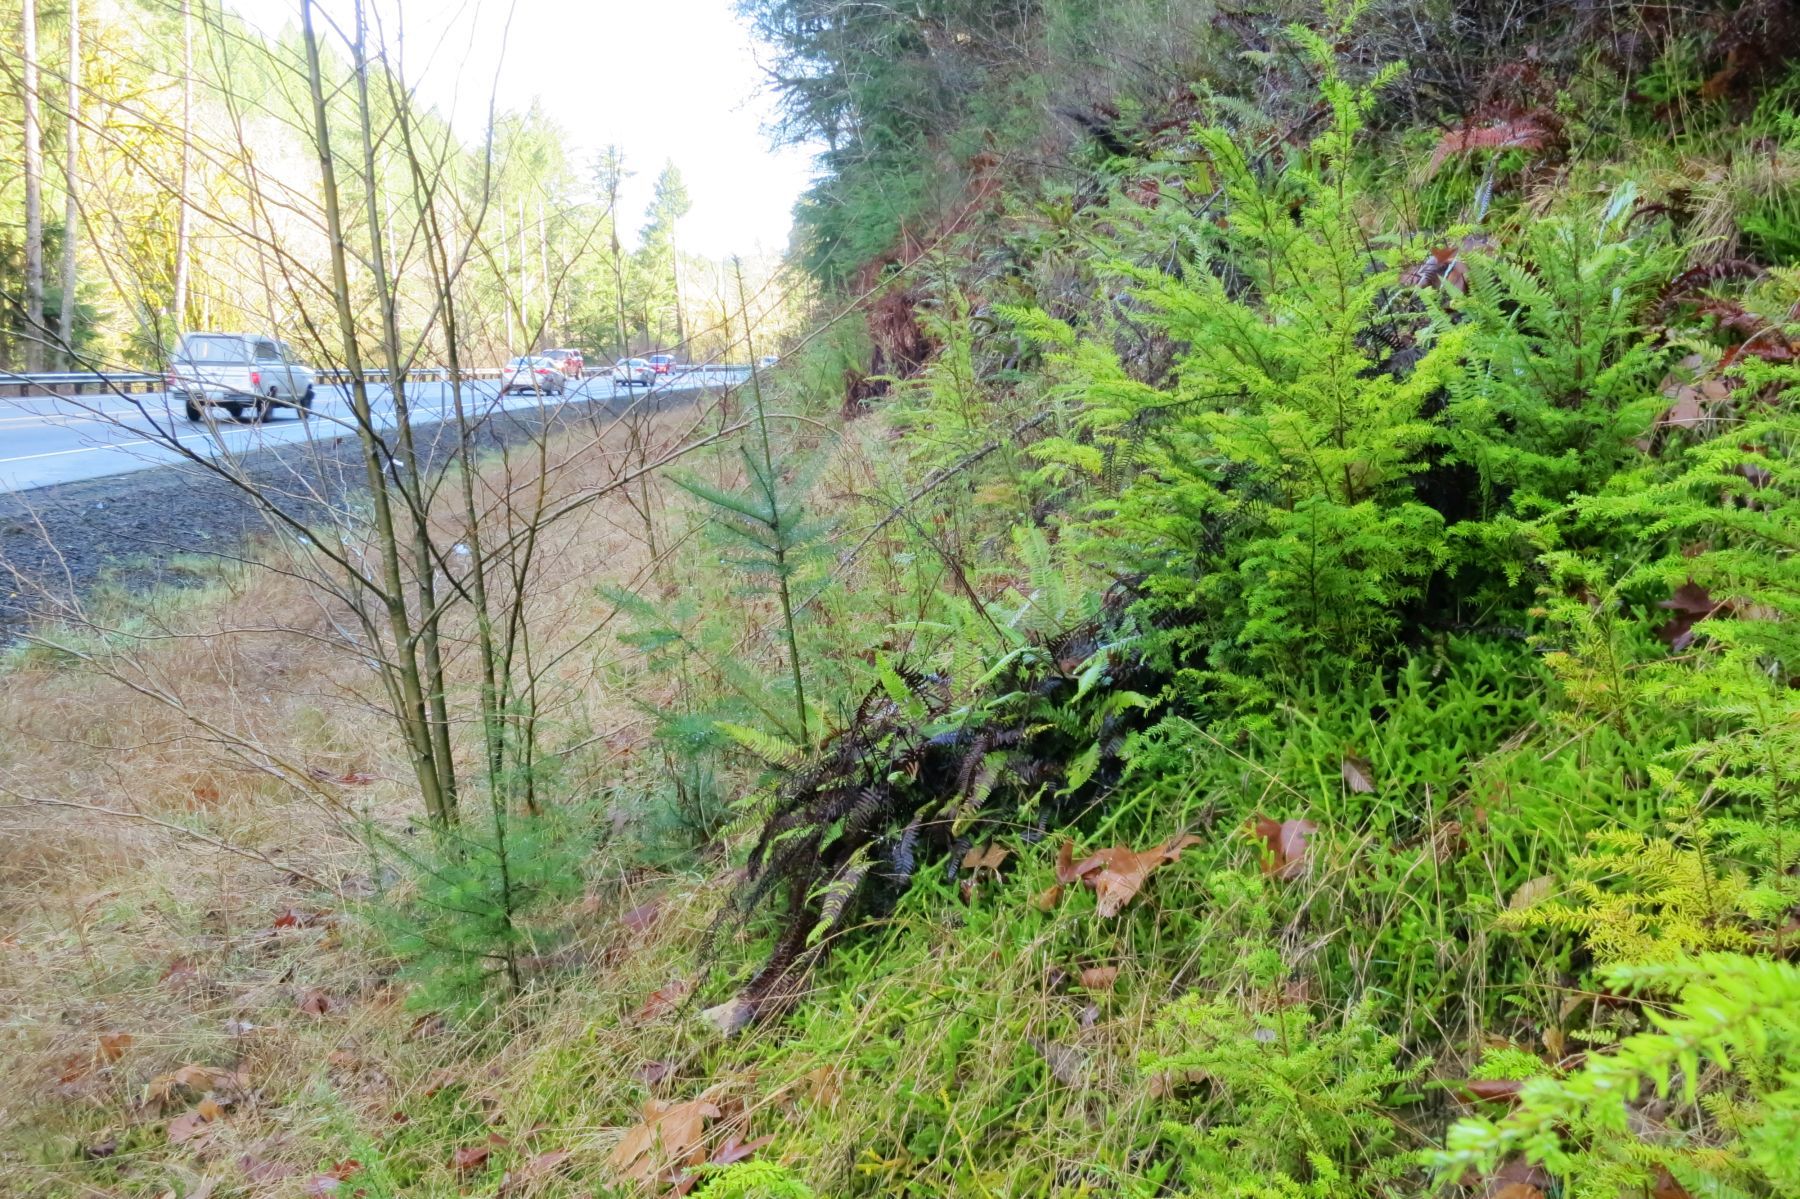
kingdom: Plantae
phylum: Tracheophyta
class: Lycopodiopsida
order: Lycopodiales
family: Lycopodiaceae
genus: Lycopodium
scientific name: Lycopodium clavatum
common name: Stag's-horn clubmoss
